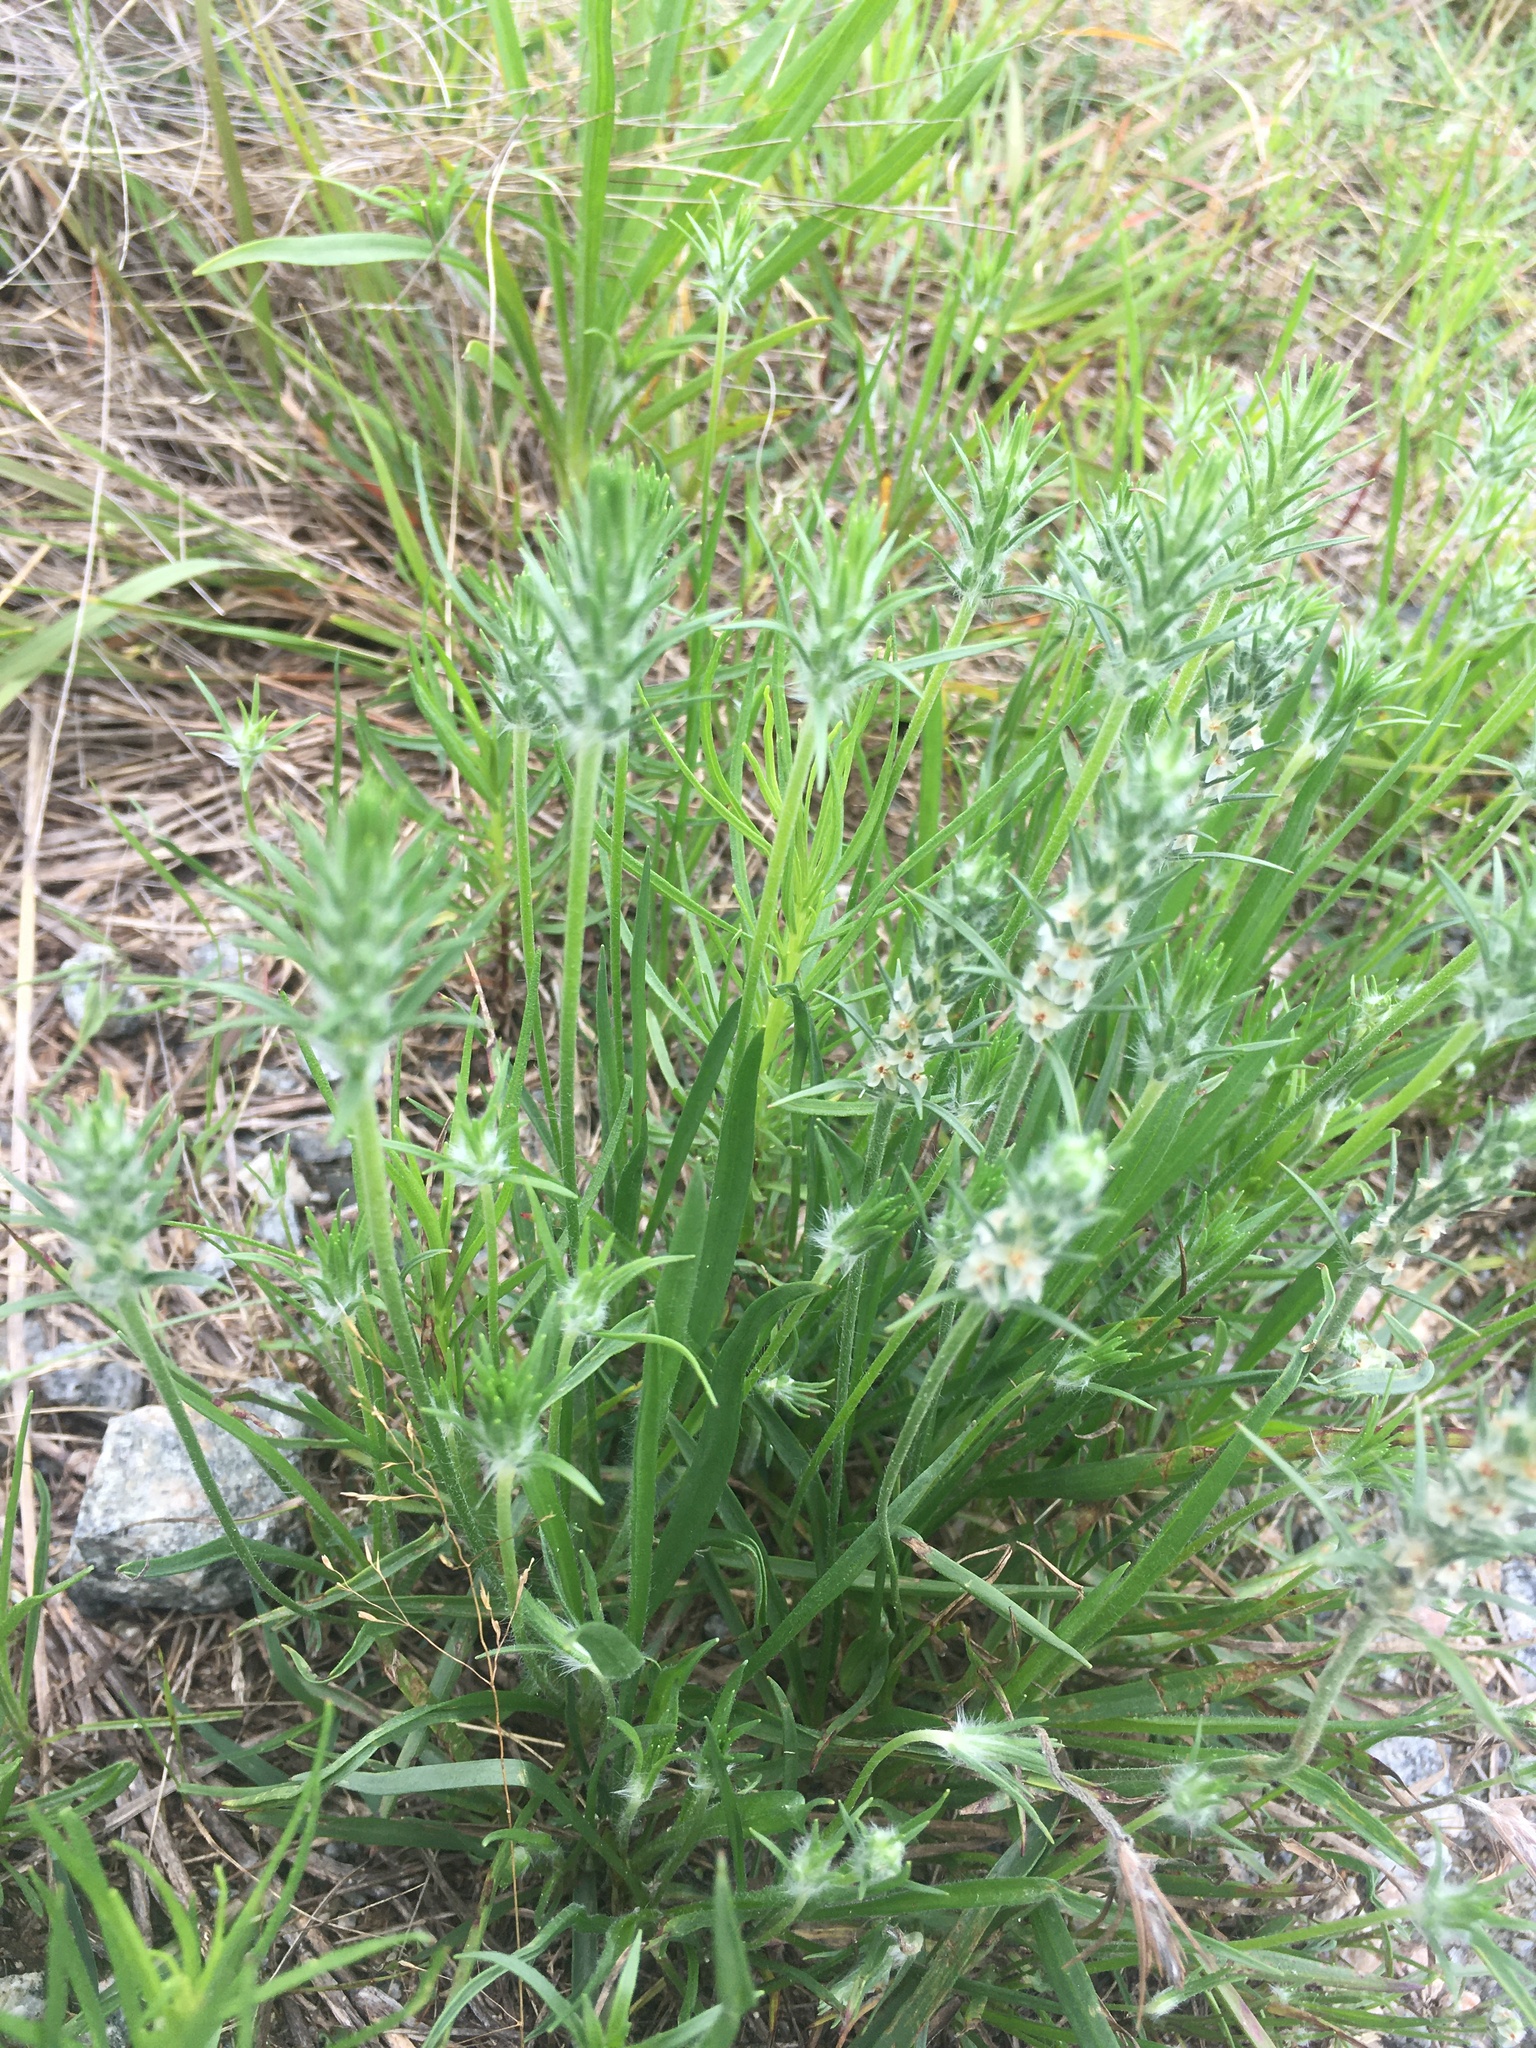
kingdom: Plantae
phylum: Tracheophyta
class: Magnoliopsida
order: Lamiales
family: Plantaginaceae
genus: Plantago
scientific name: Plantago aristata
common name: Bracted plantain
